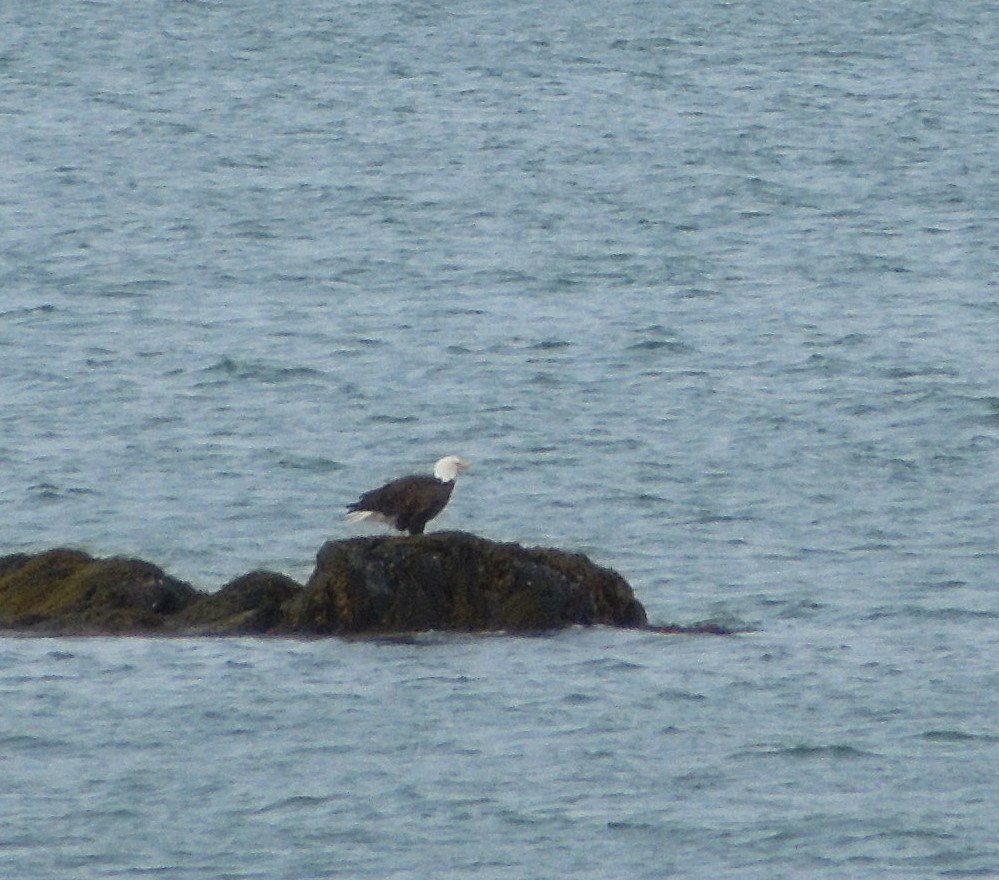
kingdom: Animalia
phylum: Chordata
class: Aves
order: Accipitriformes
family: Accipitridae
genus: Haliaeetus
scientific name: Haliaeetus leucocephalus
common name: Bald eagle
